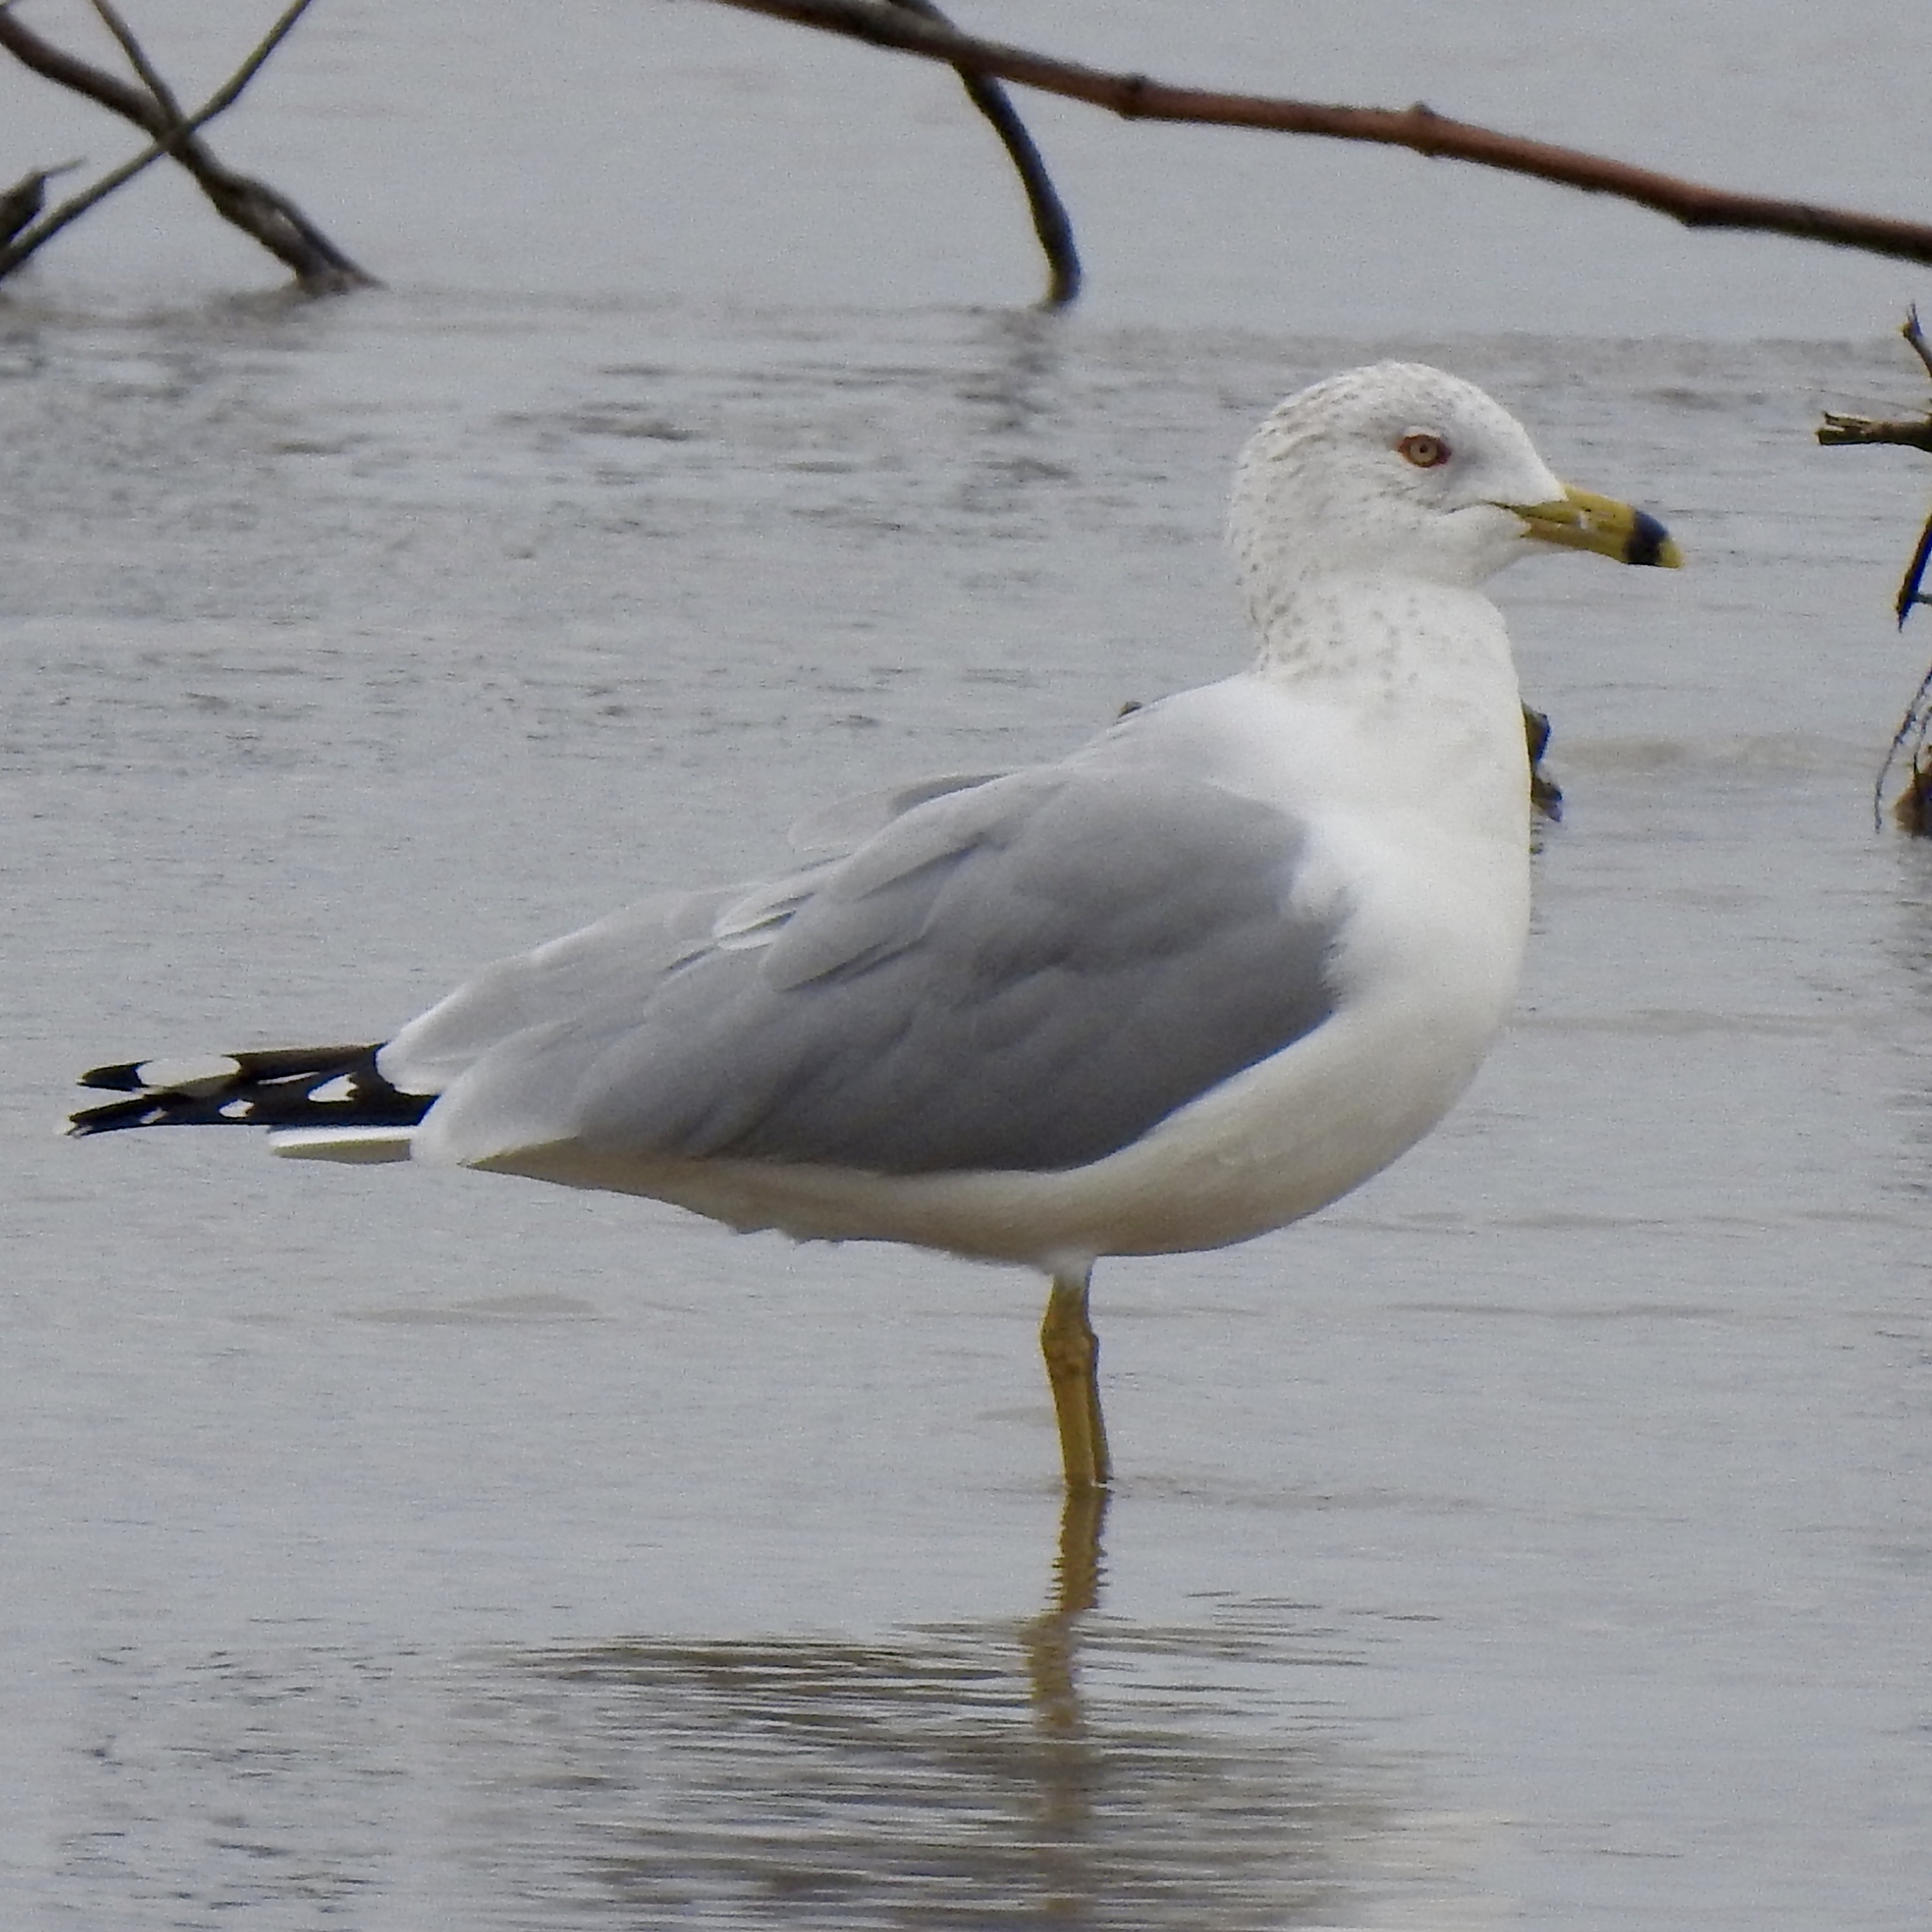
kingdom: Animalia
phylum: Chordata
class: Aves
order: Charadriiformes
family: Laridae
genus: Larus
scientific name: Larus delawarensis
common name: Ring-billed gull
